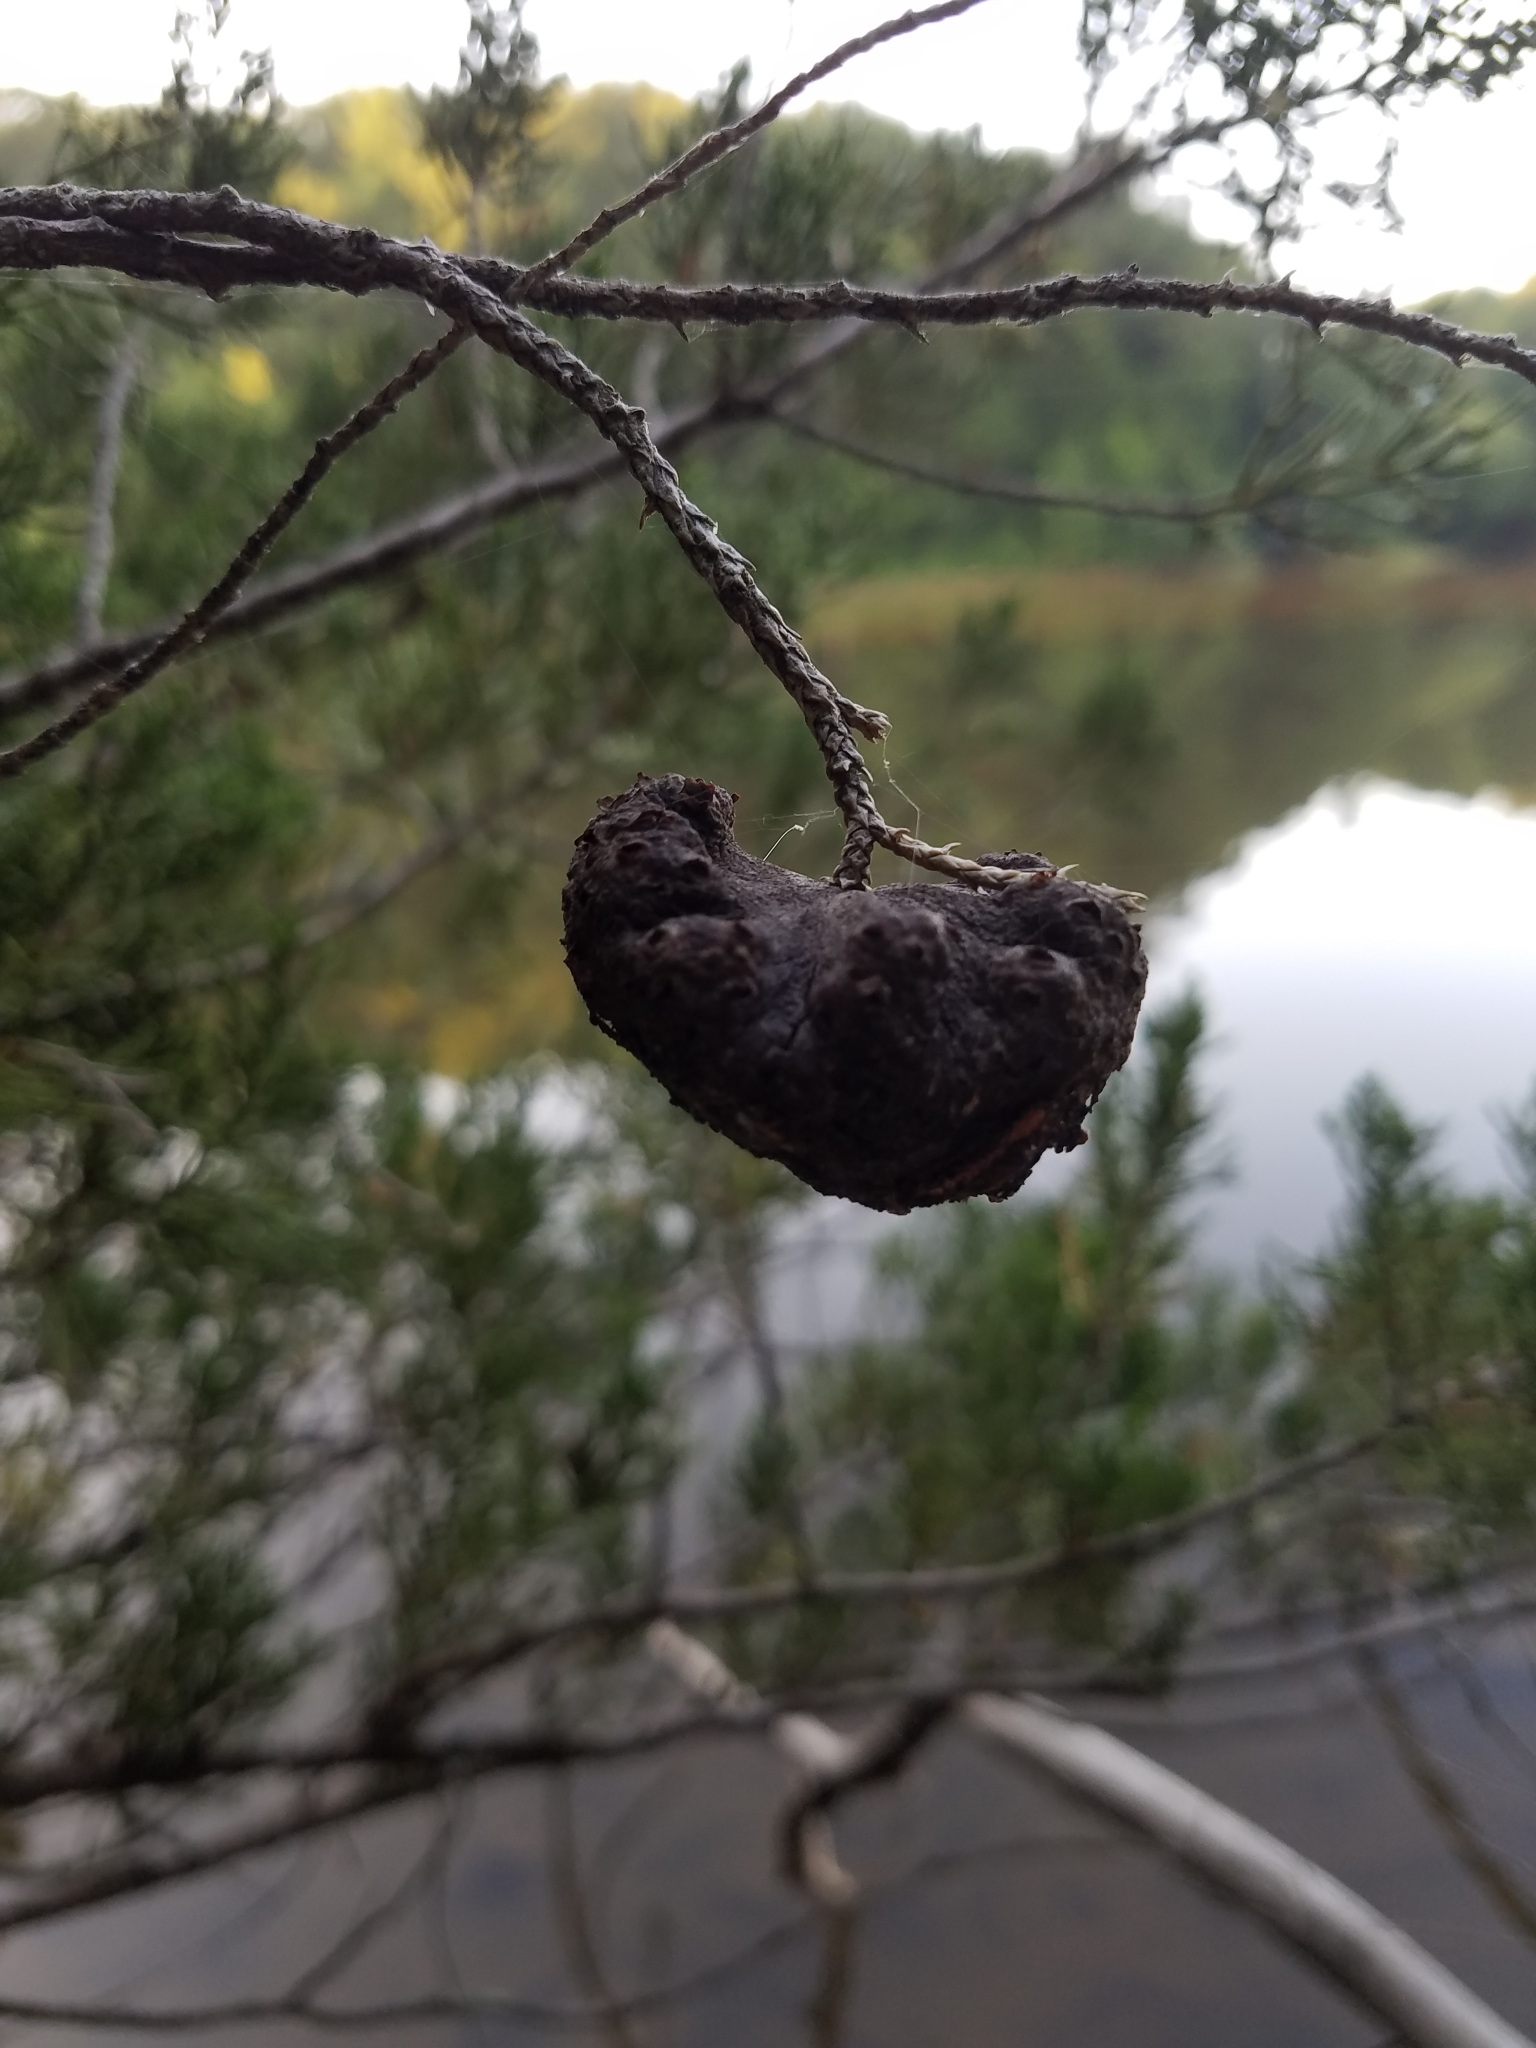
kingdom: Fungi
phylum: Basidiomycota
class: Pucciniomycetes
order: Pucciniales
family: Gymnosporangiaceae
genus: Gymnosporangium
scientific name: Gymnosporangium juniperi-virginianae
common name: Juniper-apple rust
